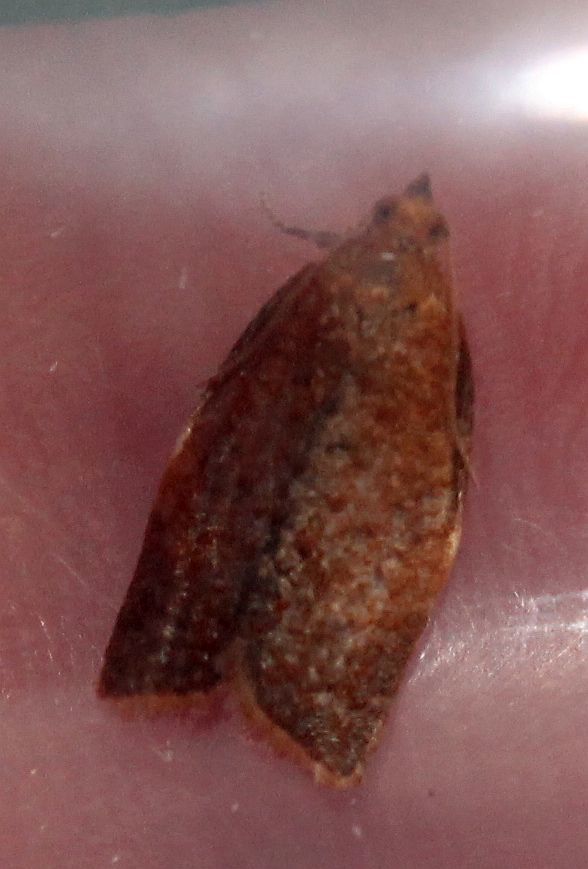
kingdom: Animalia
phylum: Arthropoda
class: Insecta
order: Lepidoptera
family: Tortricidae
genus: Clepsis
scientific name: Clepsis consimilana
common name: Privet tortrix
